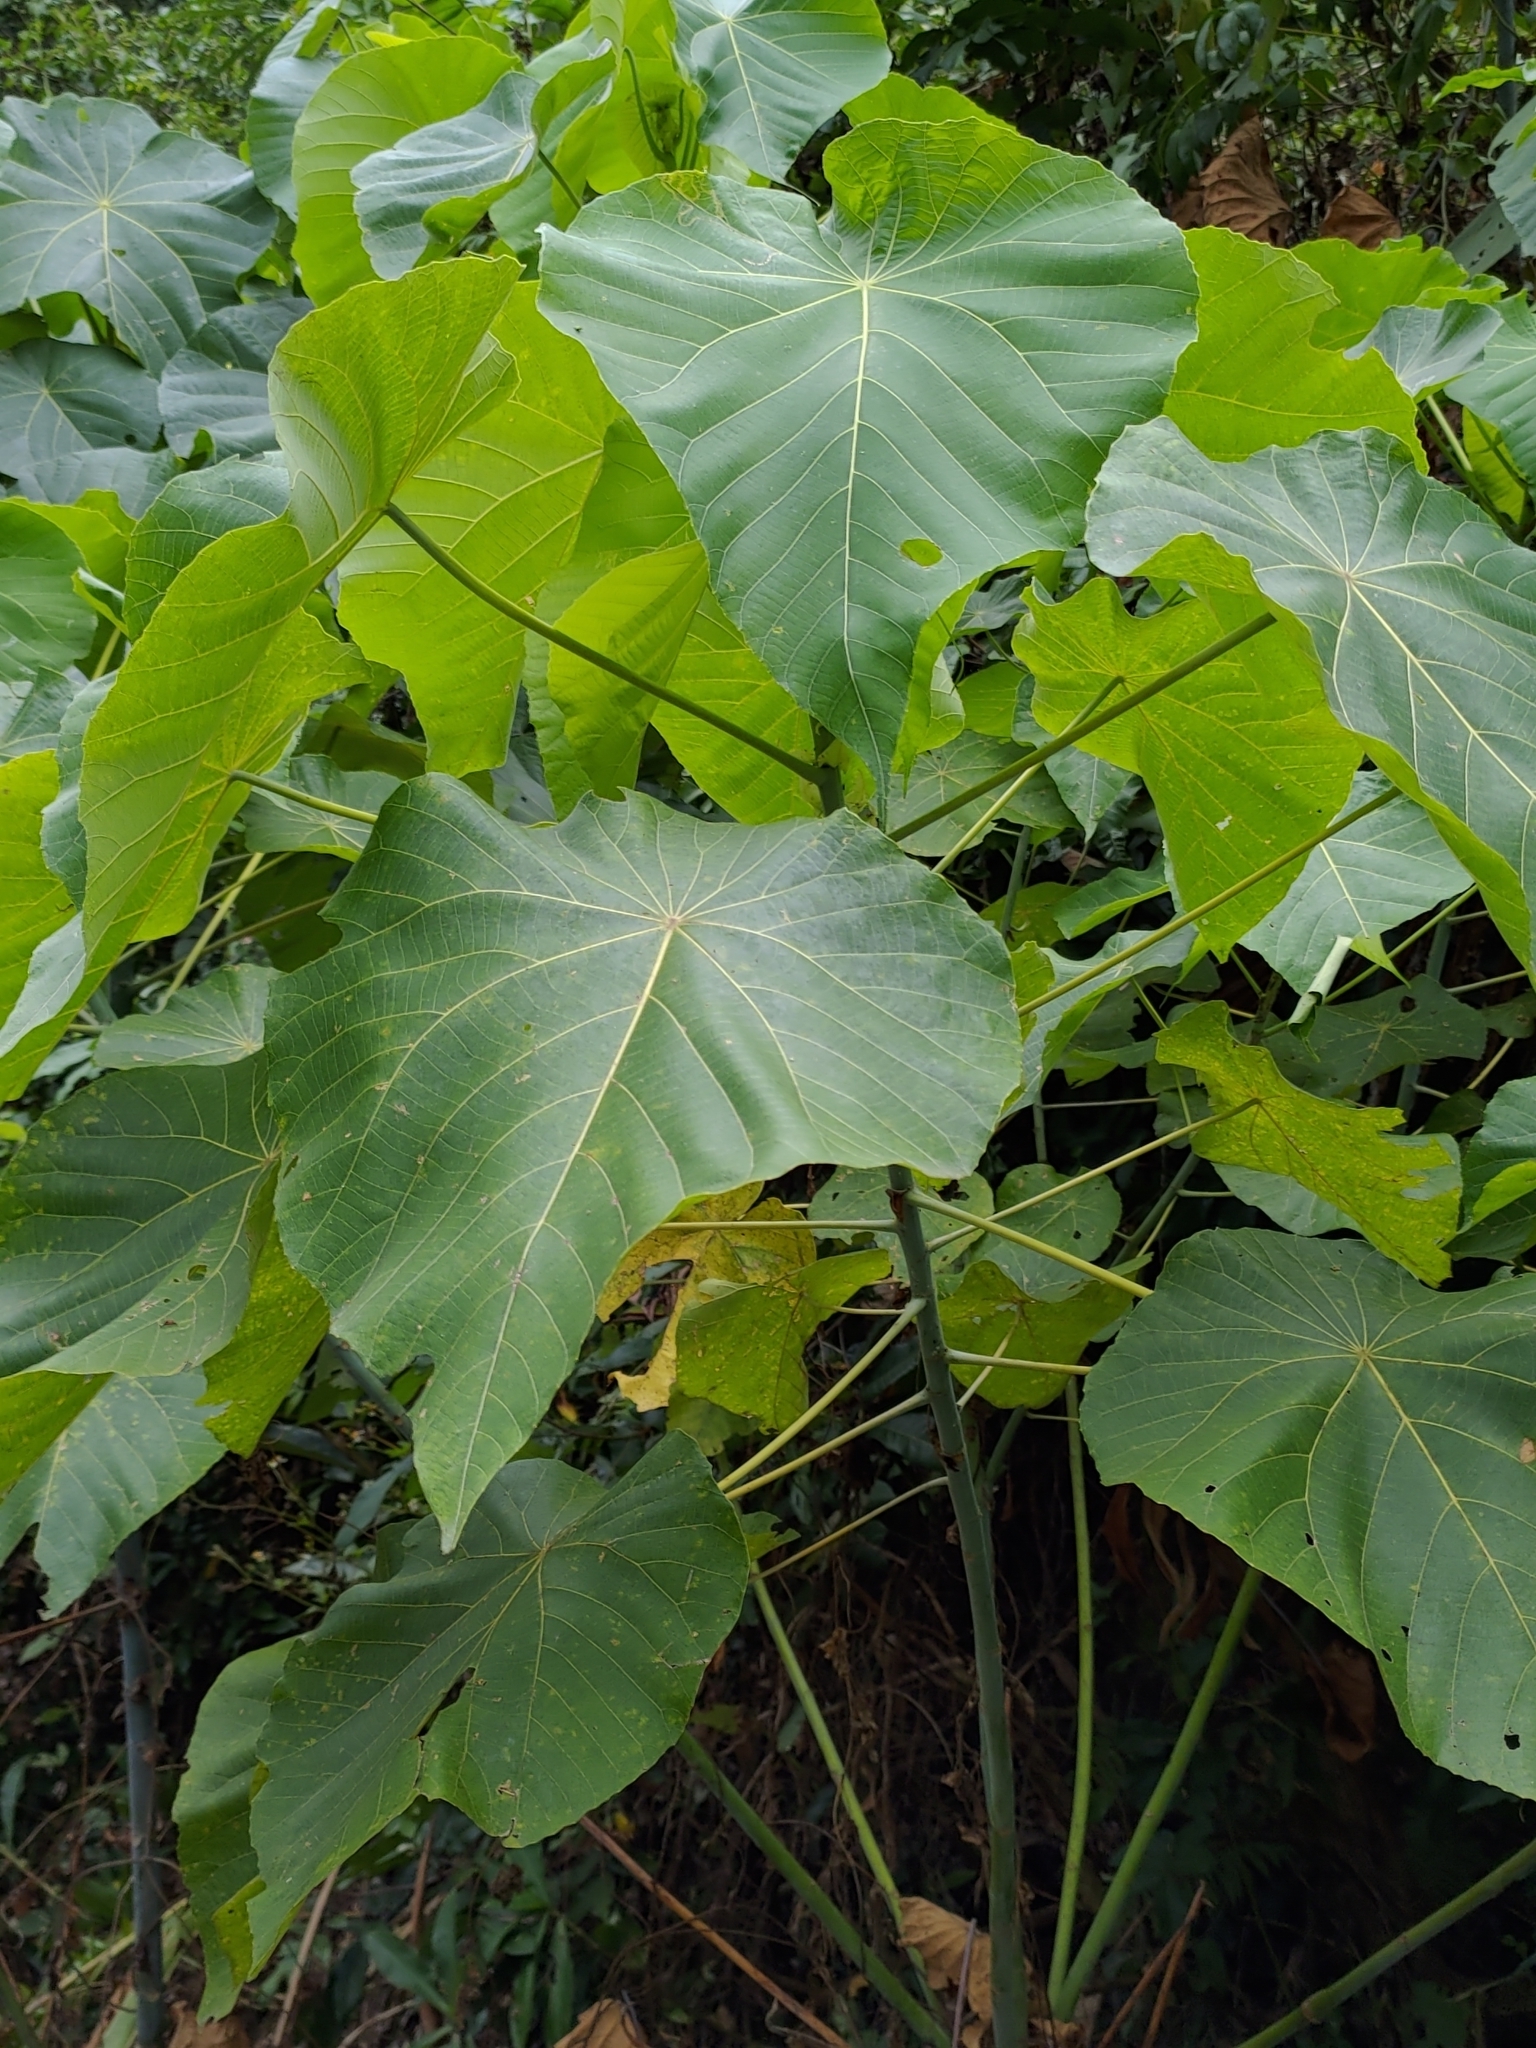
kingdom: Plantae
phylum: Tracheophyta
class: Magnoliopsida
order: Malpighiales
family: Euphorbiaceae
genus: Macaranga
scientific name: Macaranga tanarius
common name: Parasol leaf tree
